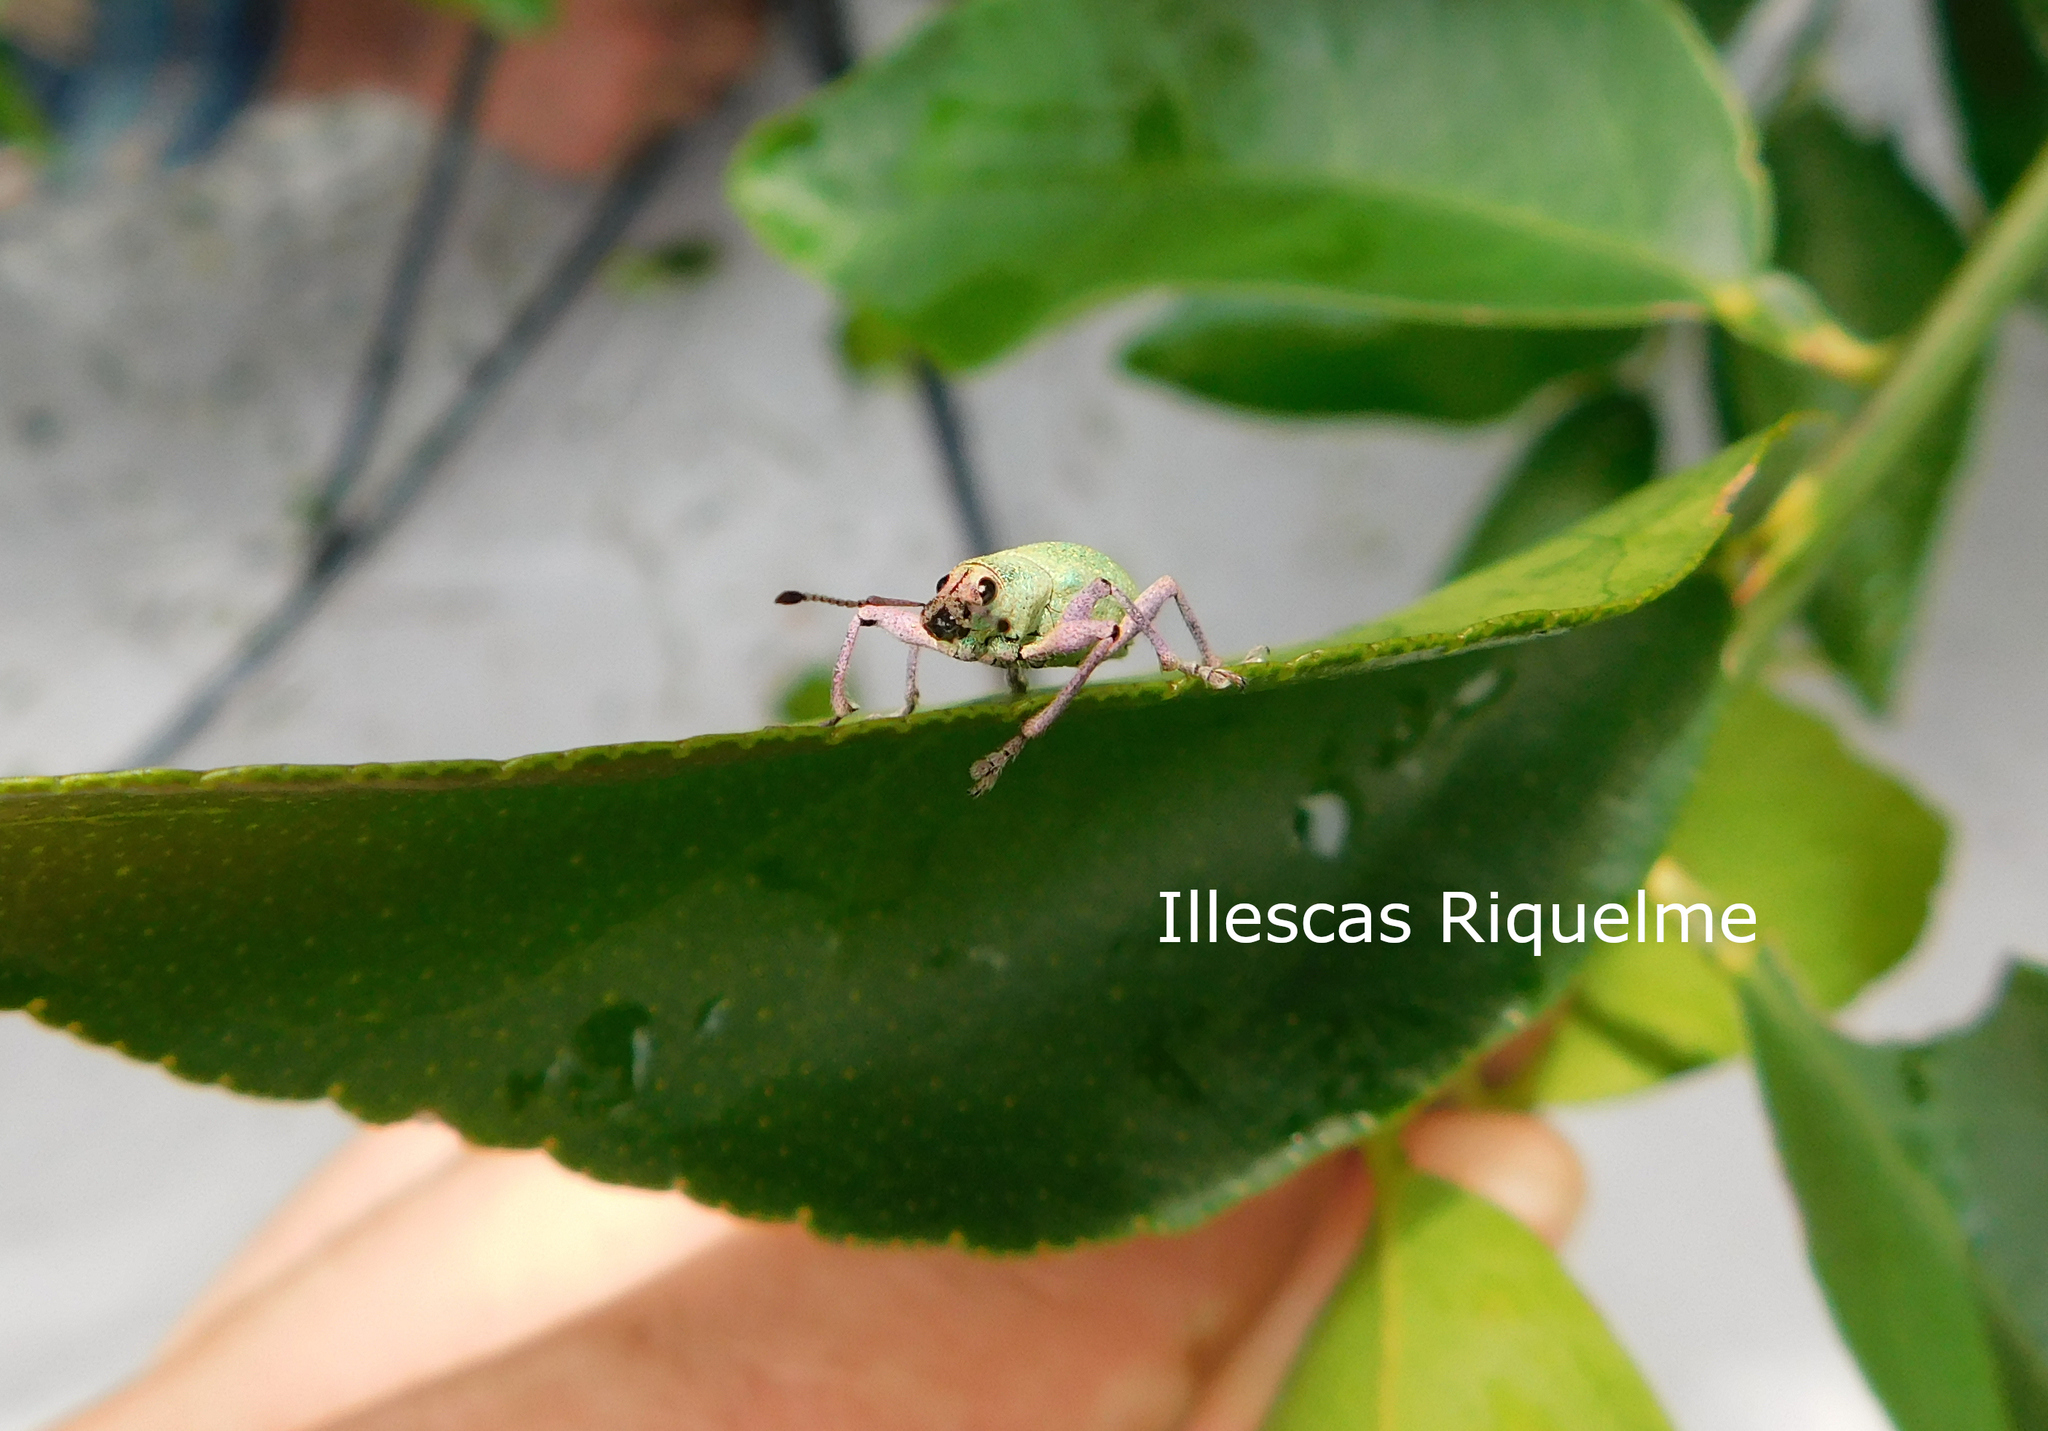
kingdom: Animalia
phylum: Arthropoda
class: Insecta
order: Coleoptera
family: Curculionidae
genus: Exophthalmus
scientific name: Exophthalmus opulentus
